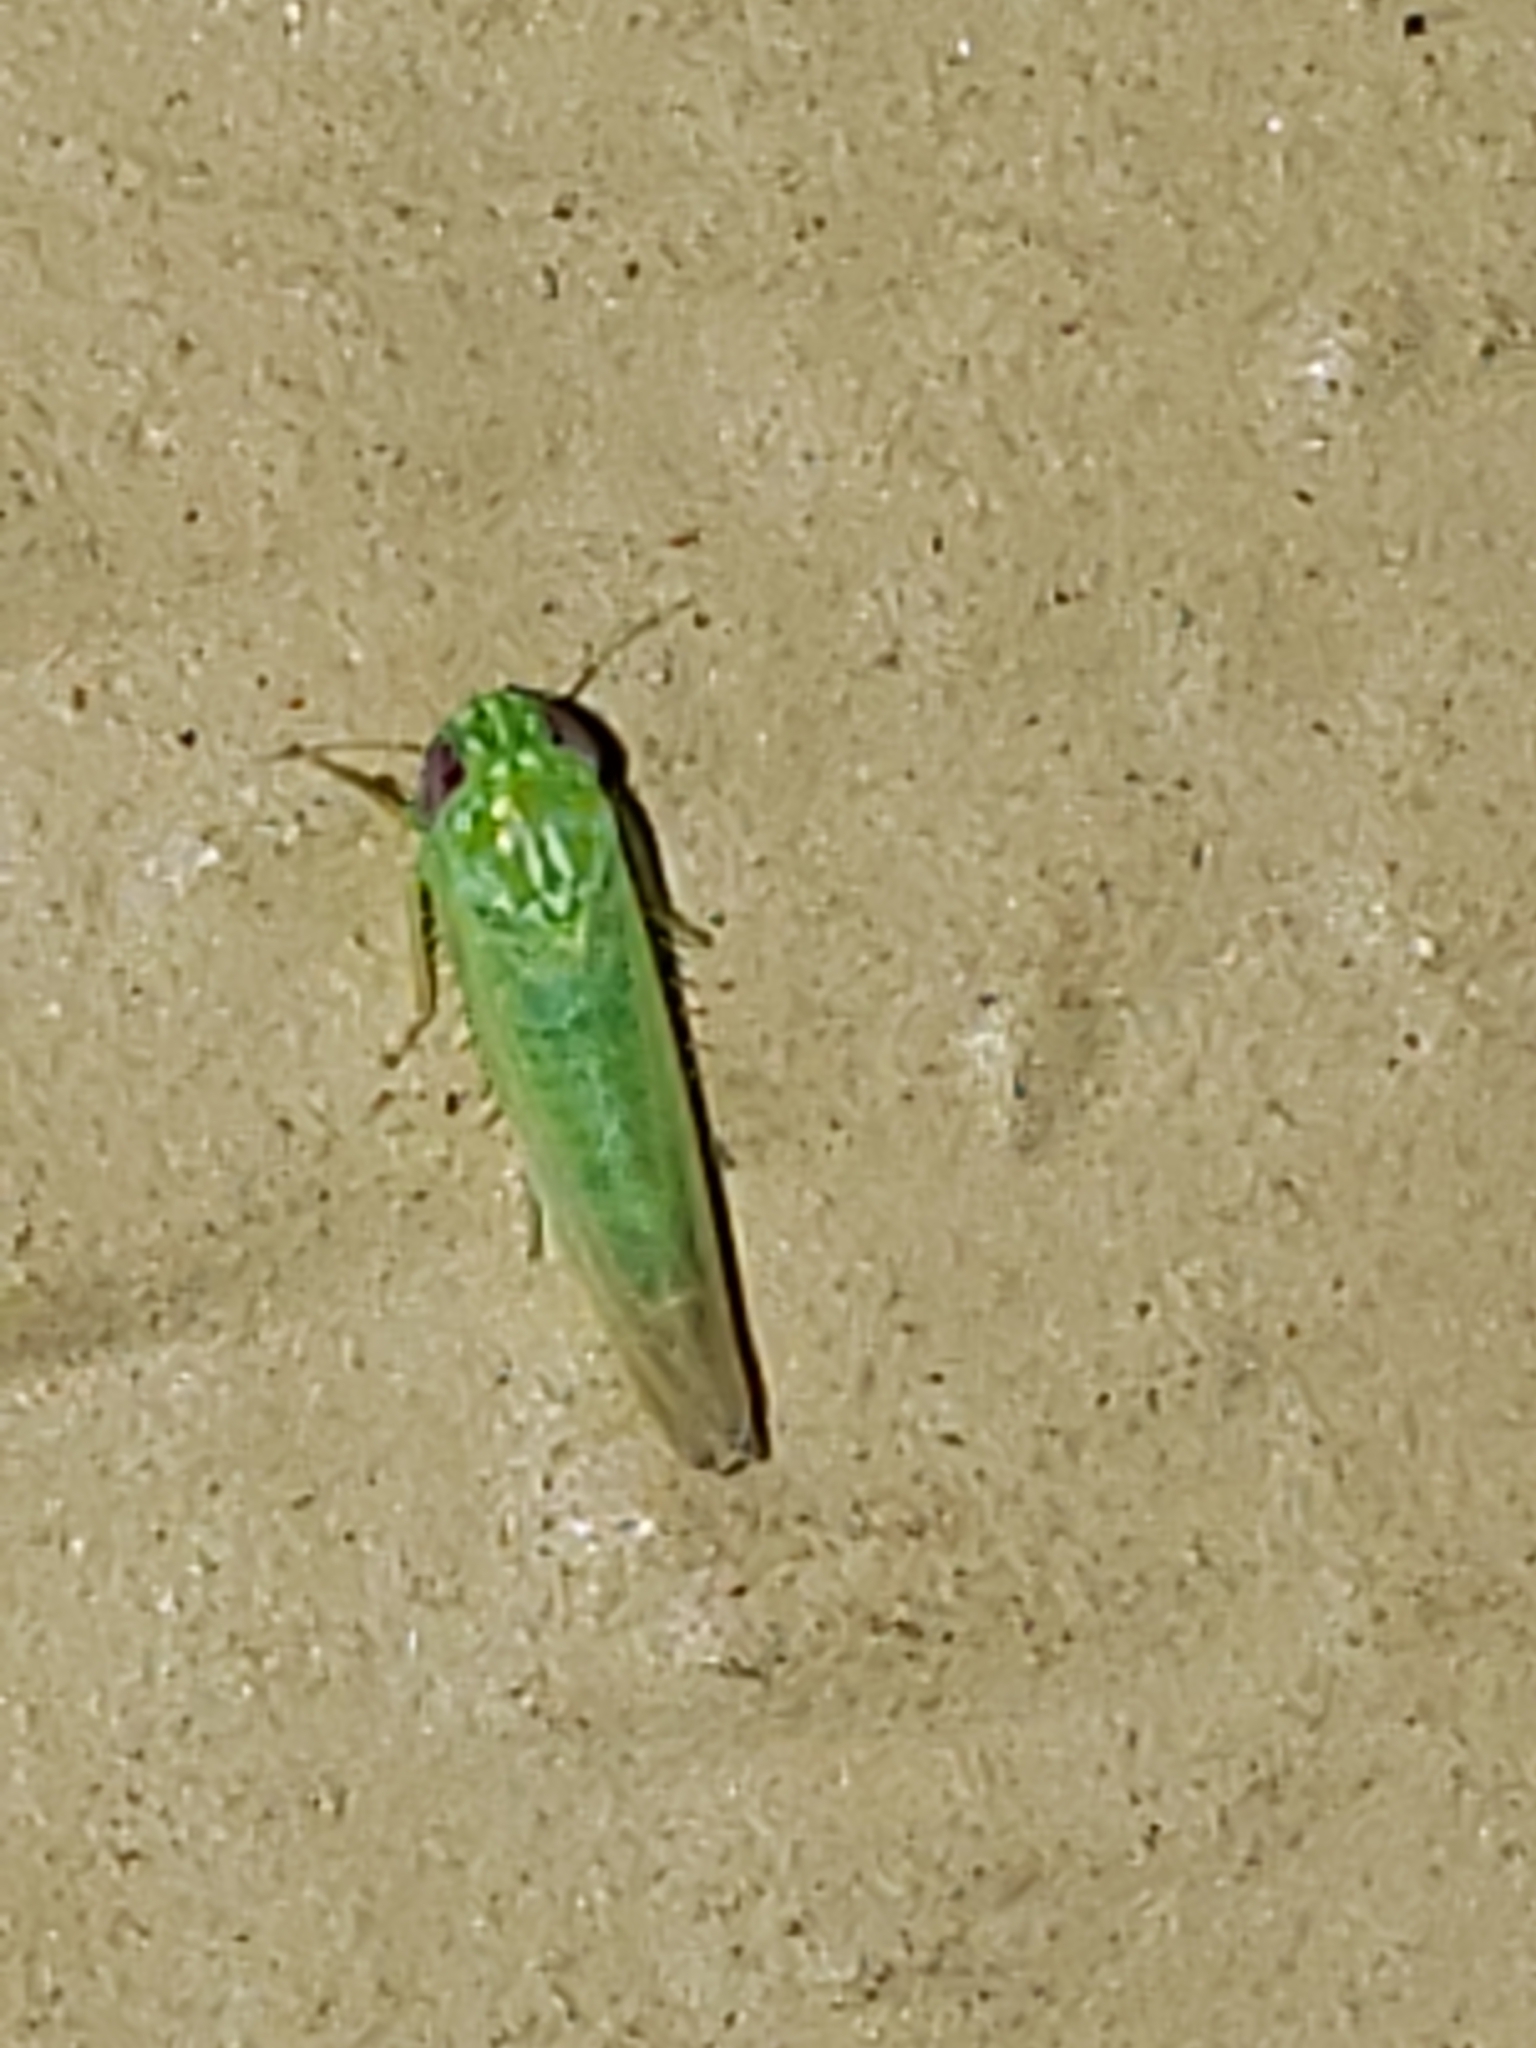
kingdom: Animalia
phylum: Arthropoda
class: Insecta
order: Hemiptera
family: Cicadellidae
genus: Empoasca
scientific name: Empoasca fabae
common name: Potato leafhopper
